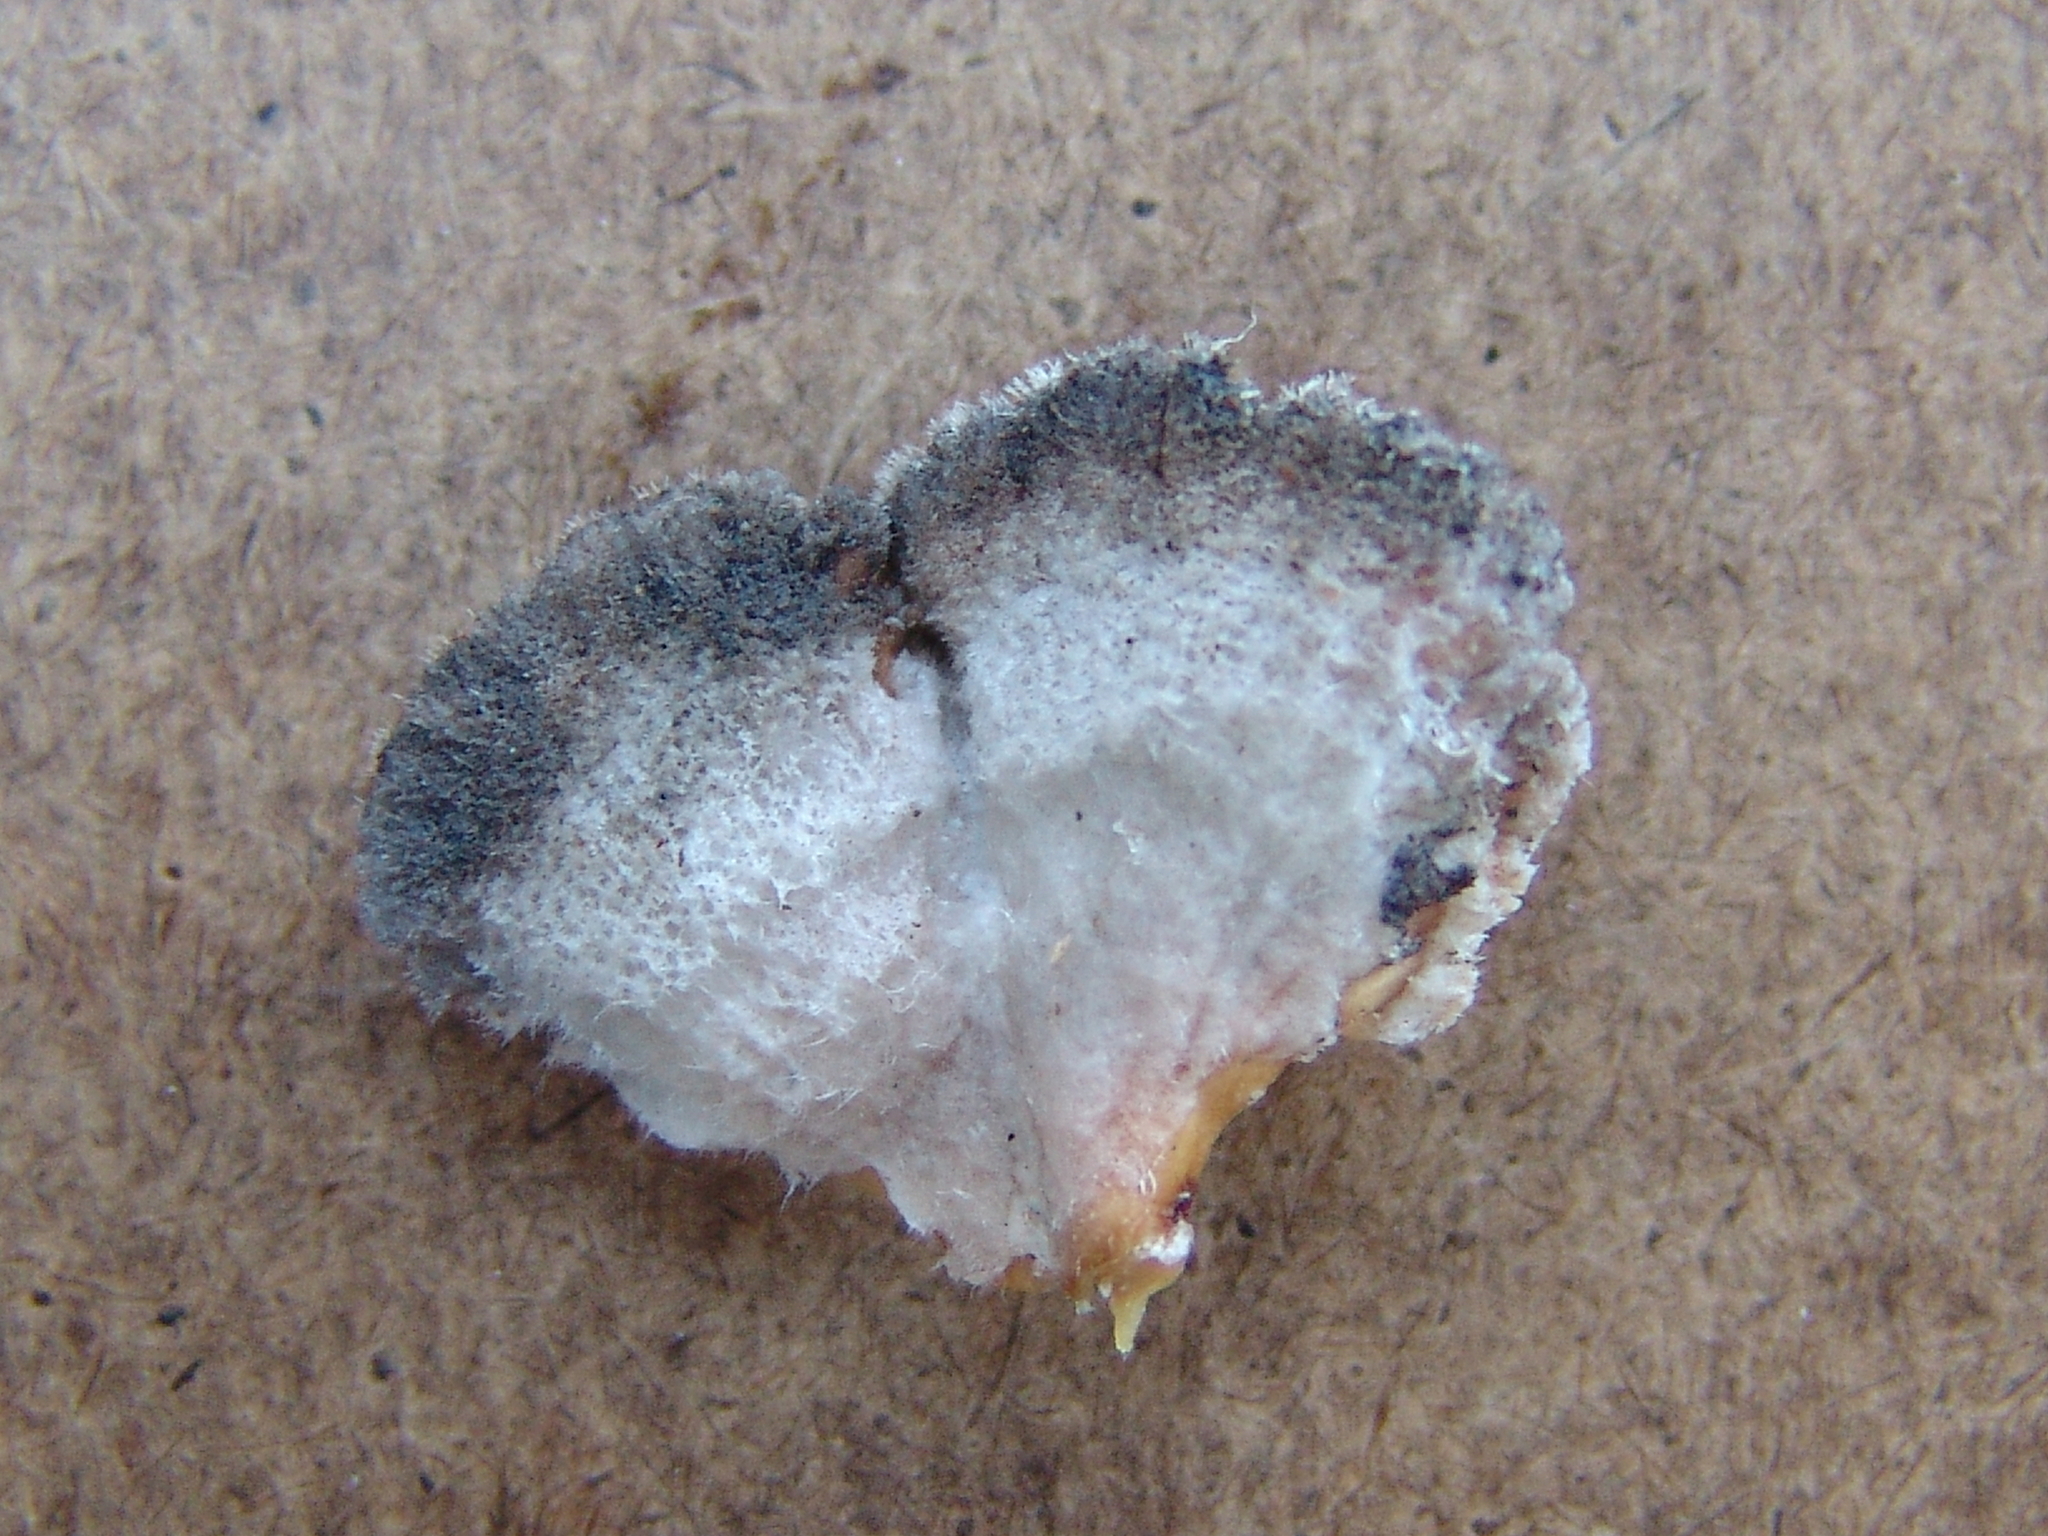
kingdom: Fungi
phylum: Basidiomycota
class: Agaricomycetes
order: Agaricales
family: Schizophyllaceae
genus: Schizophyllum
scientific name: Schizophyllum commune
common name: Common porecrust
